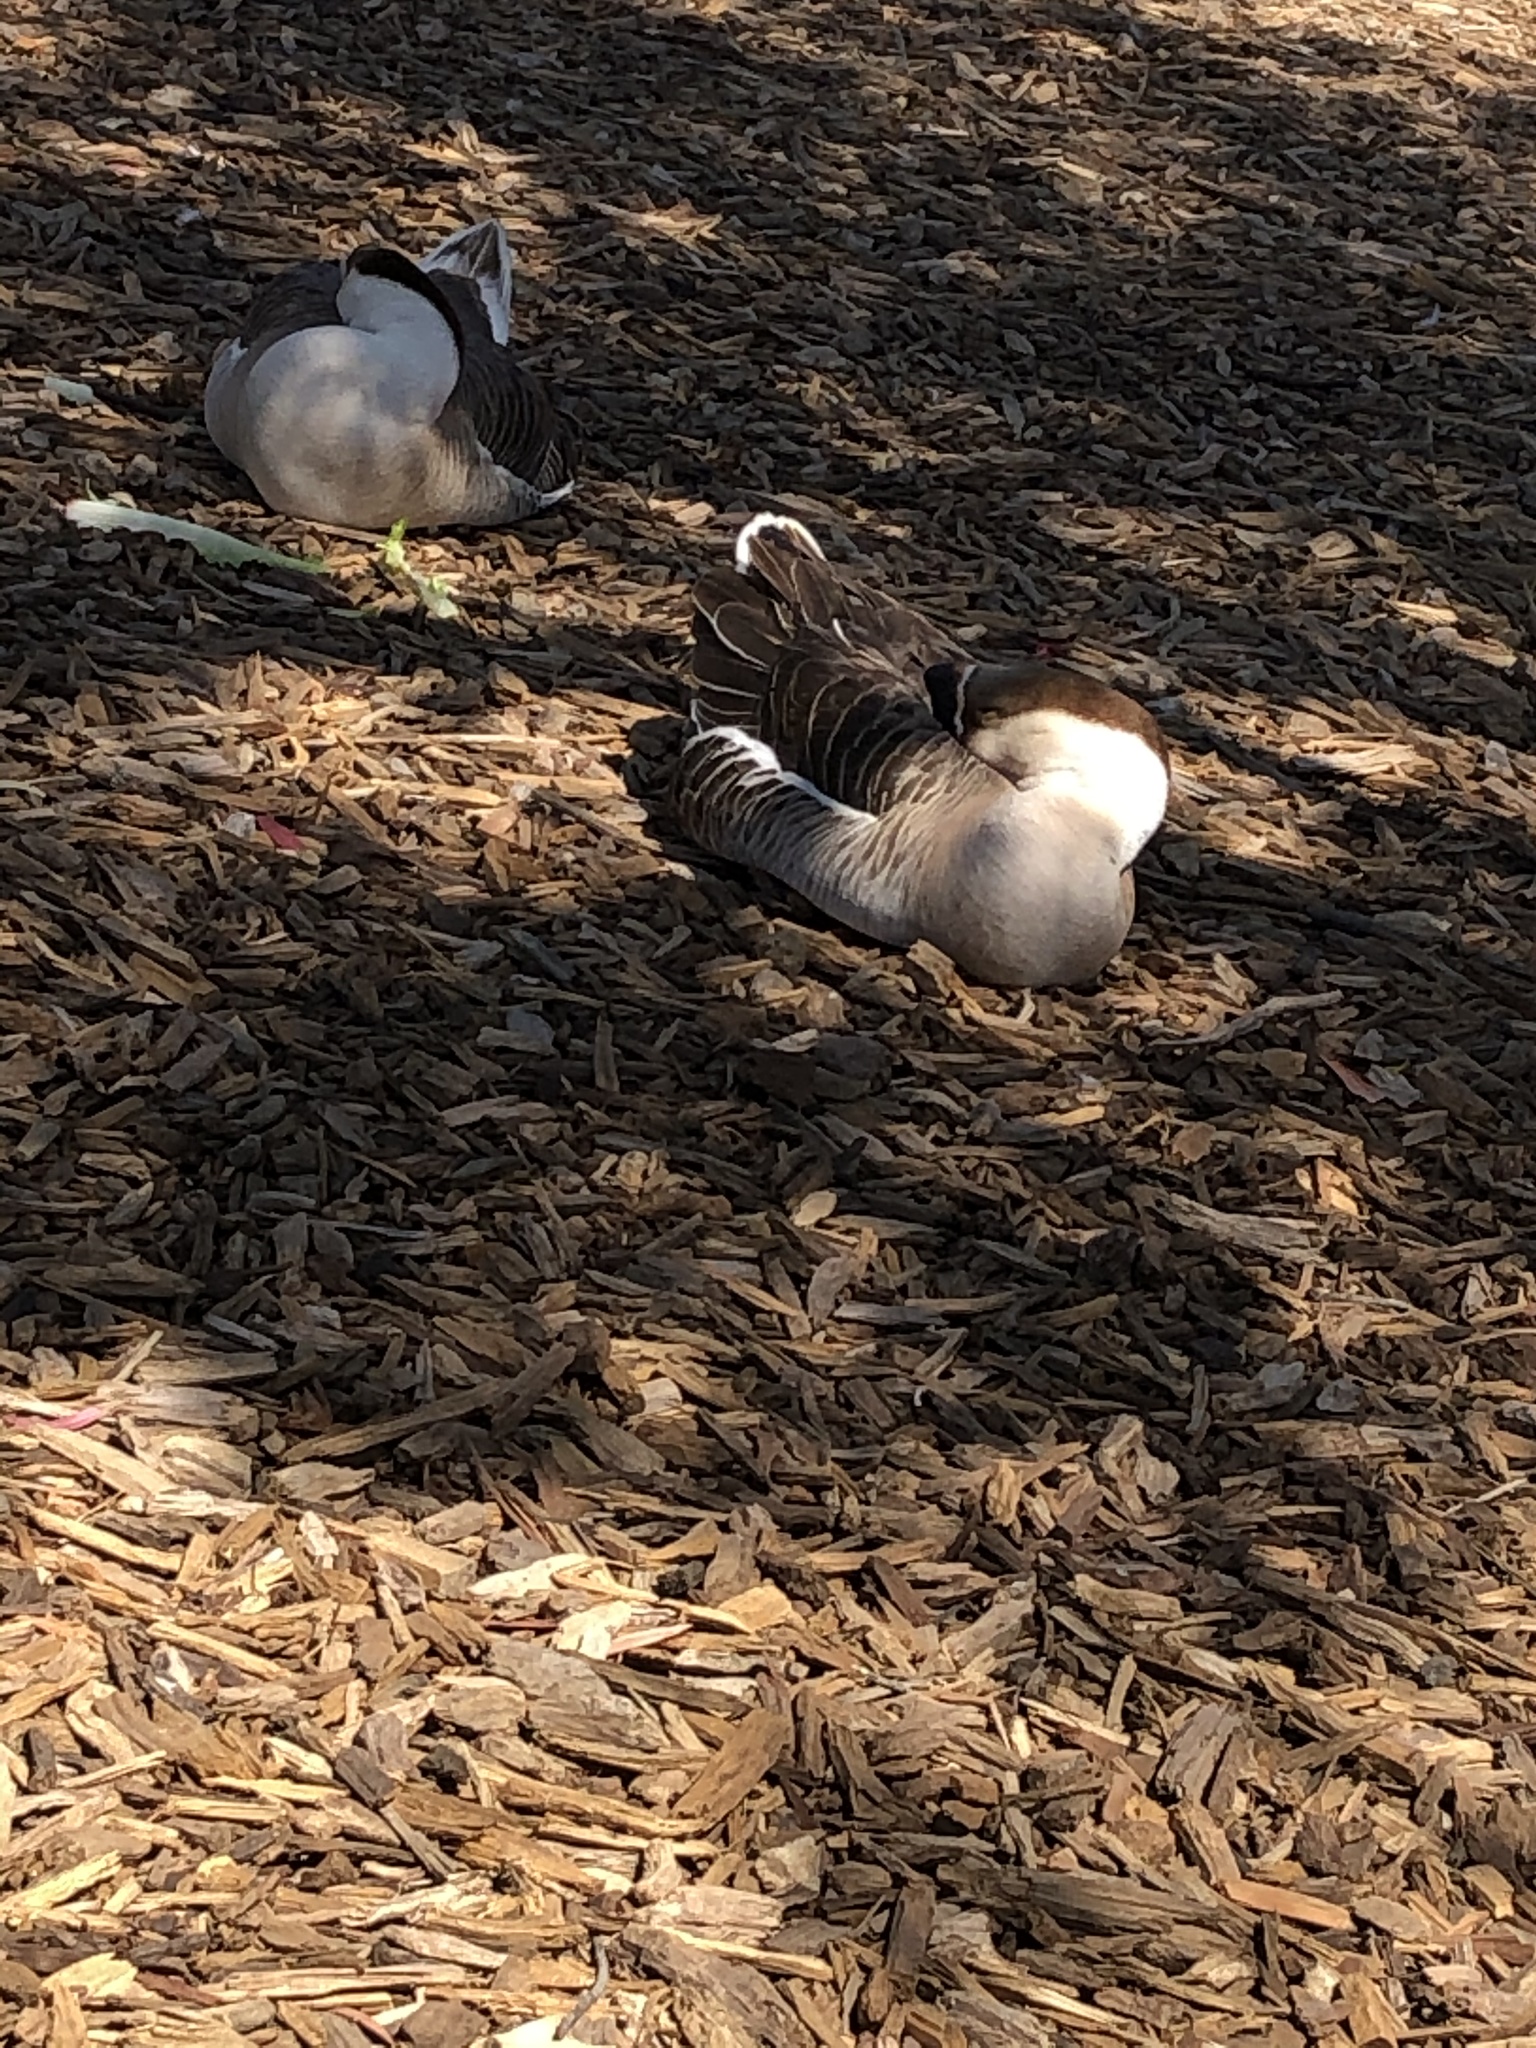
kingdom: Animalia
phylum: Chordata
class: Aves
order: Anseriformes
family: Anatidae
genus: Anser
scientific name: Anser cygnoides
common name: Swan goose
